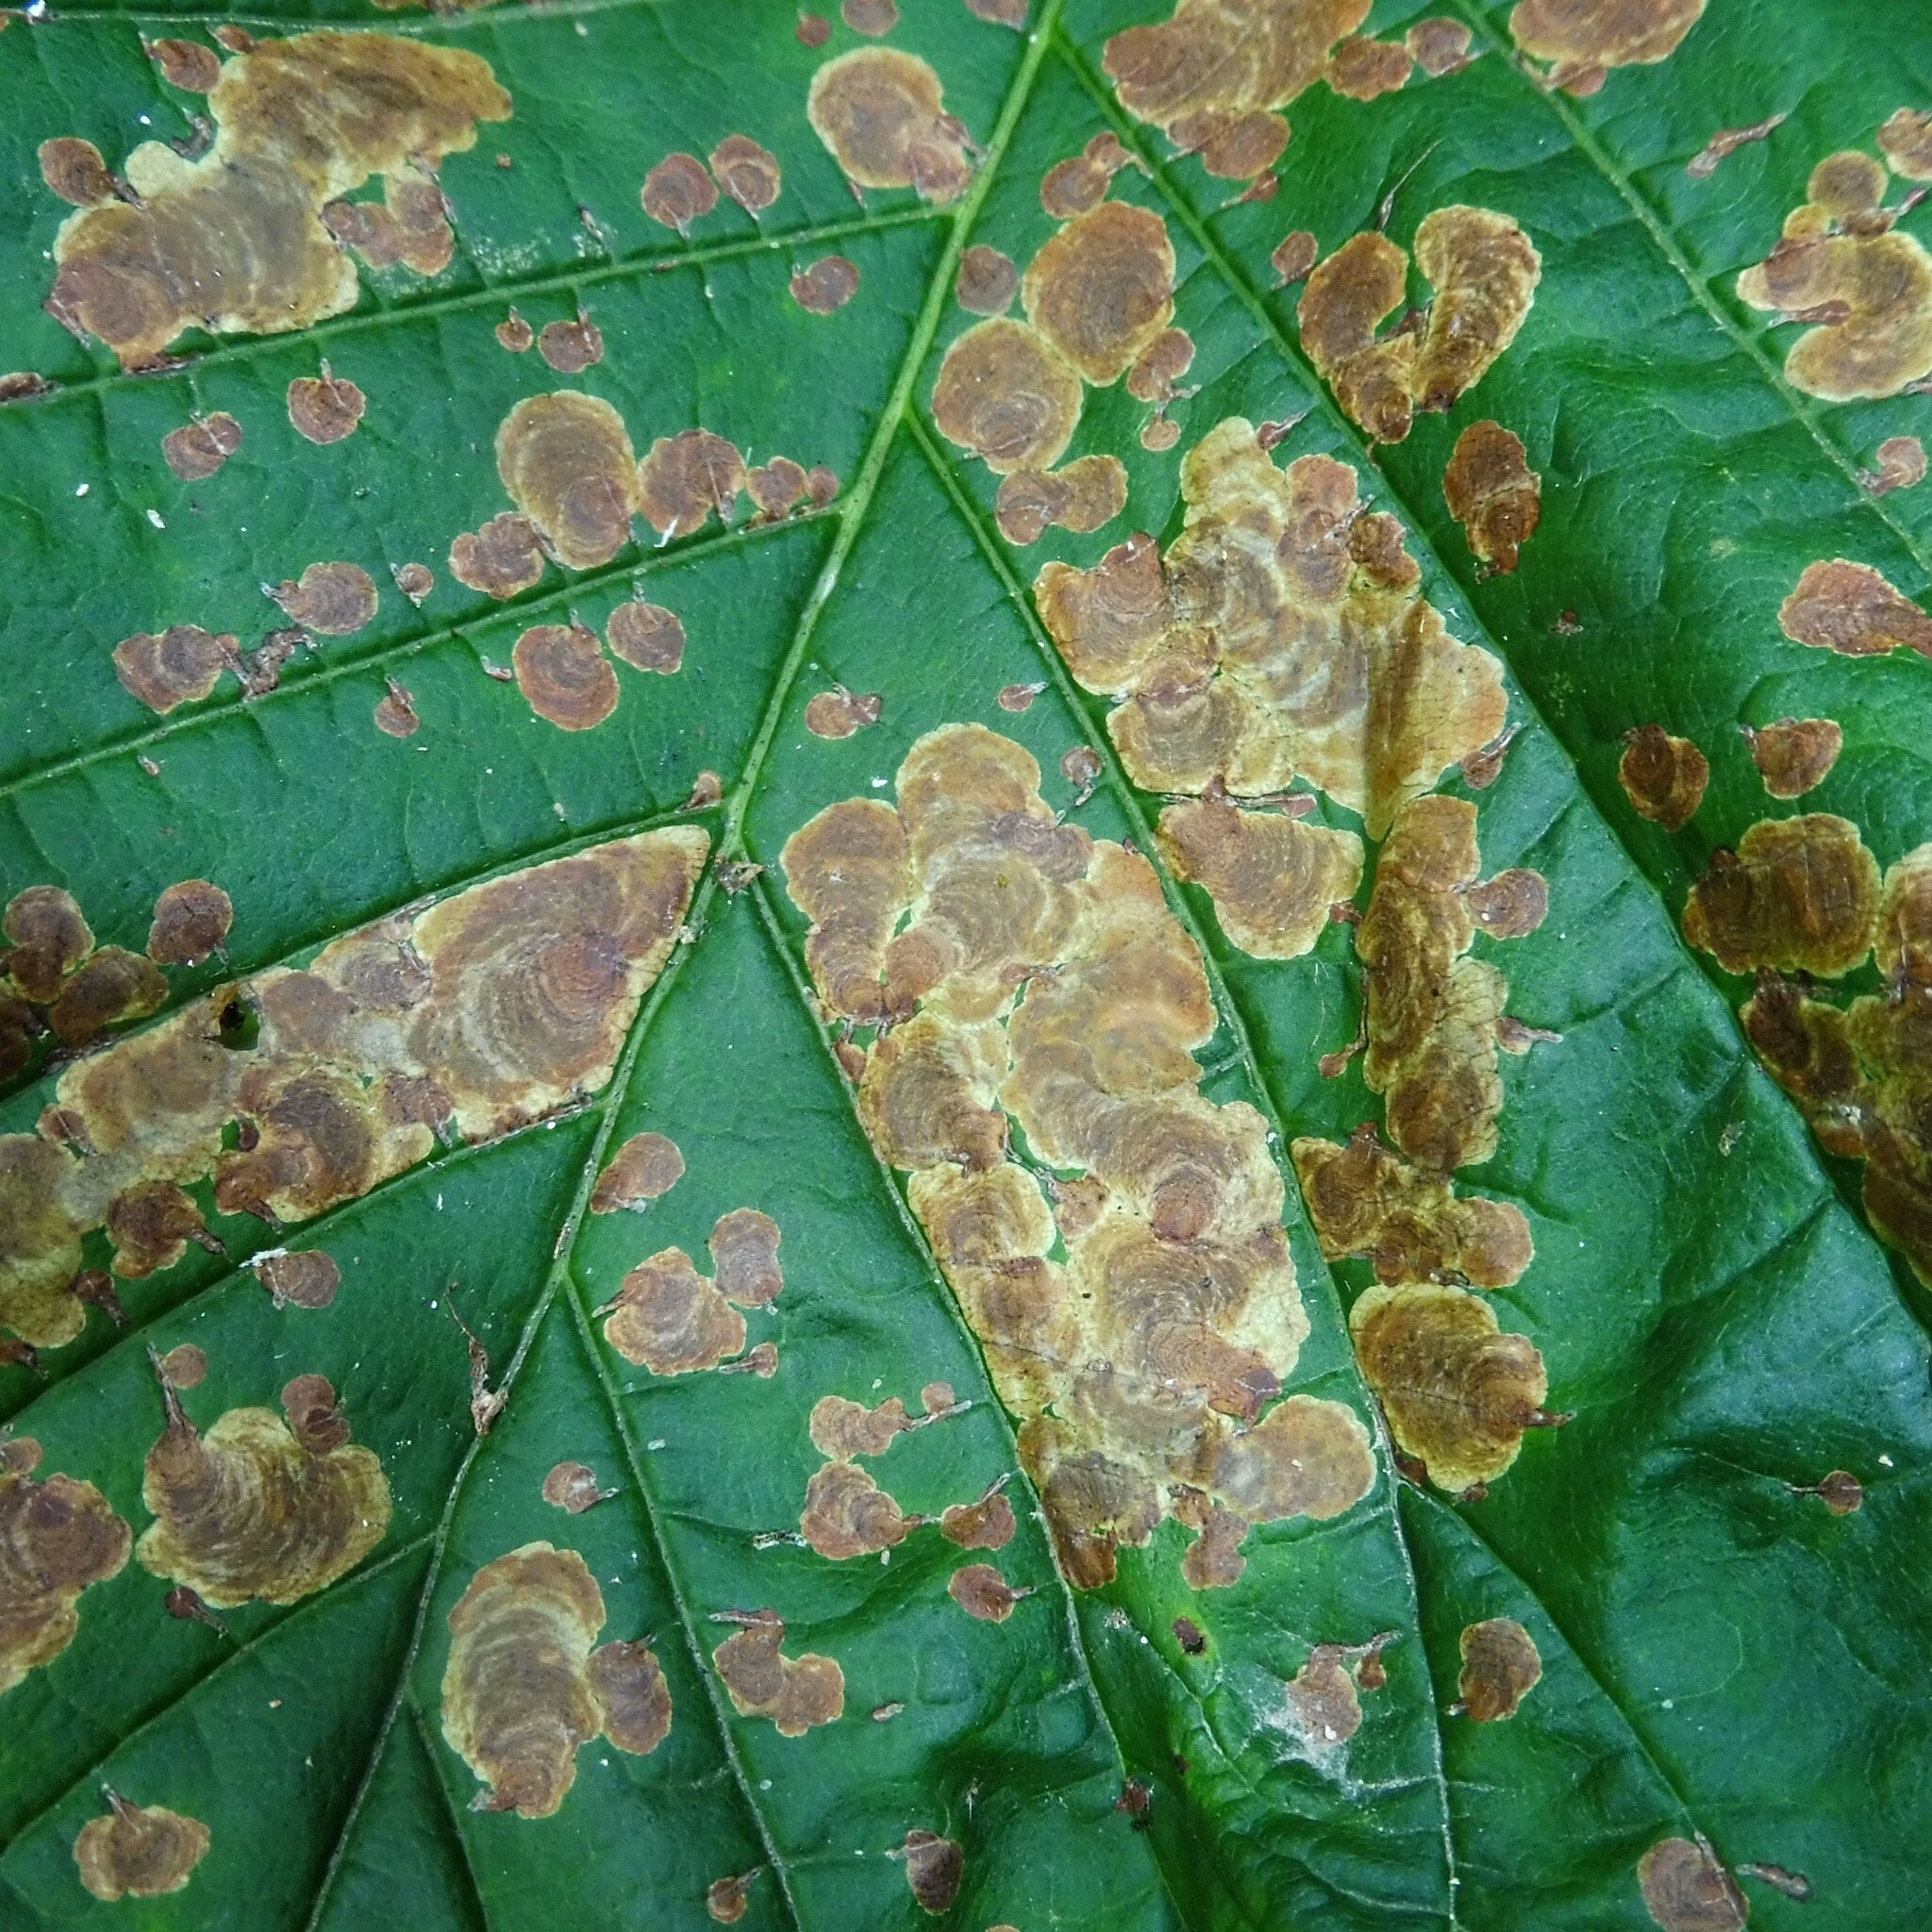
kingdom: Animalia
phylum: Arthropoda
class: Insecta
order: Lepidoptera
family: Gracillariidae
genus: Cameraria
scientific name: Cameraria ohridella
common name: Horse-chestnut leaf-miner
